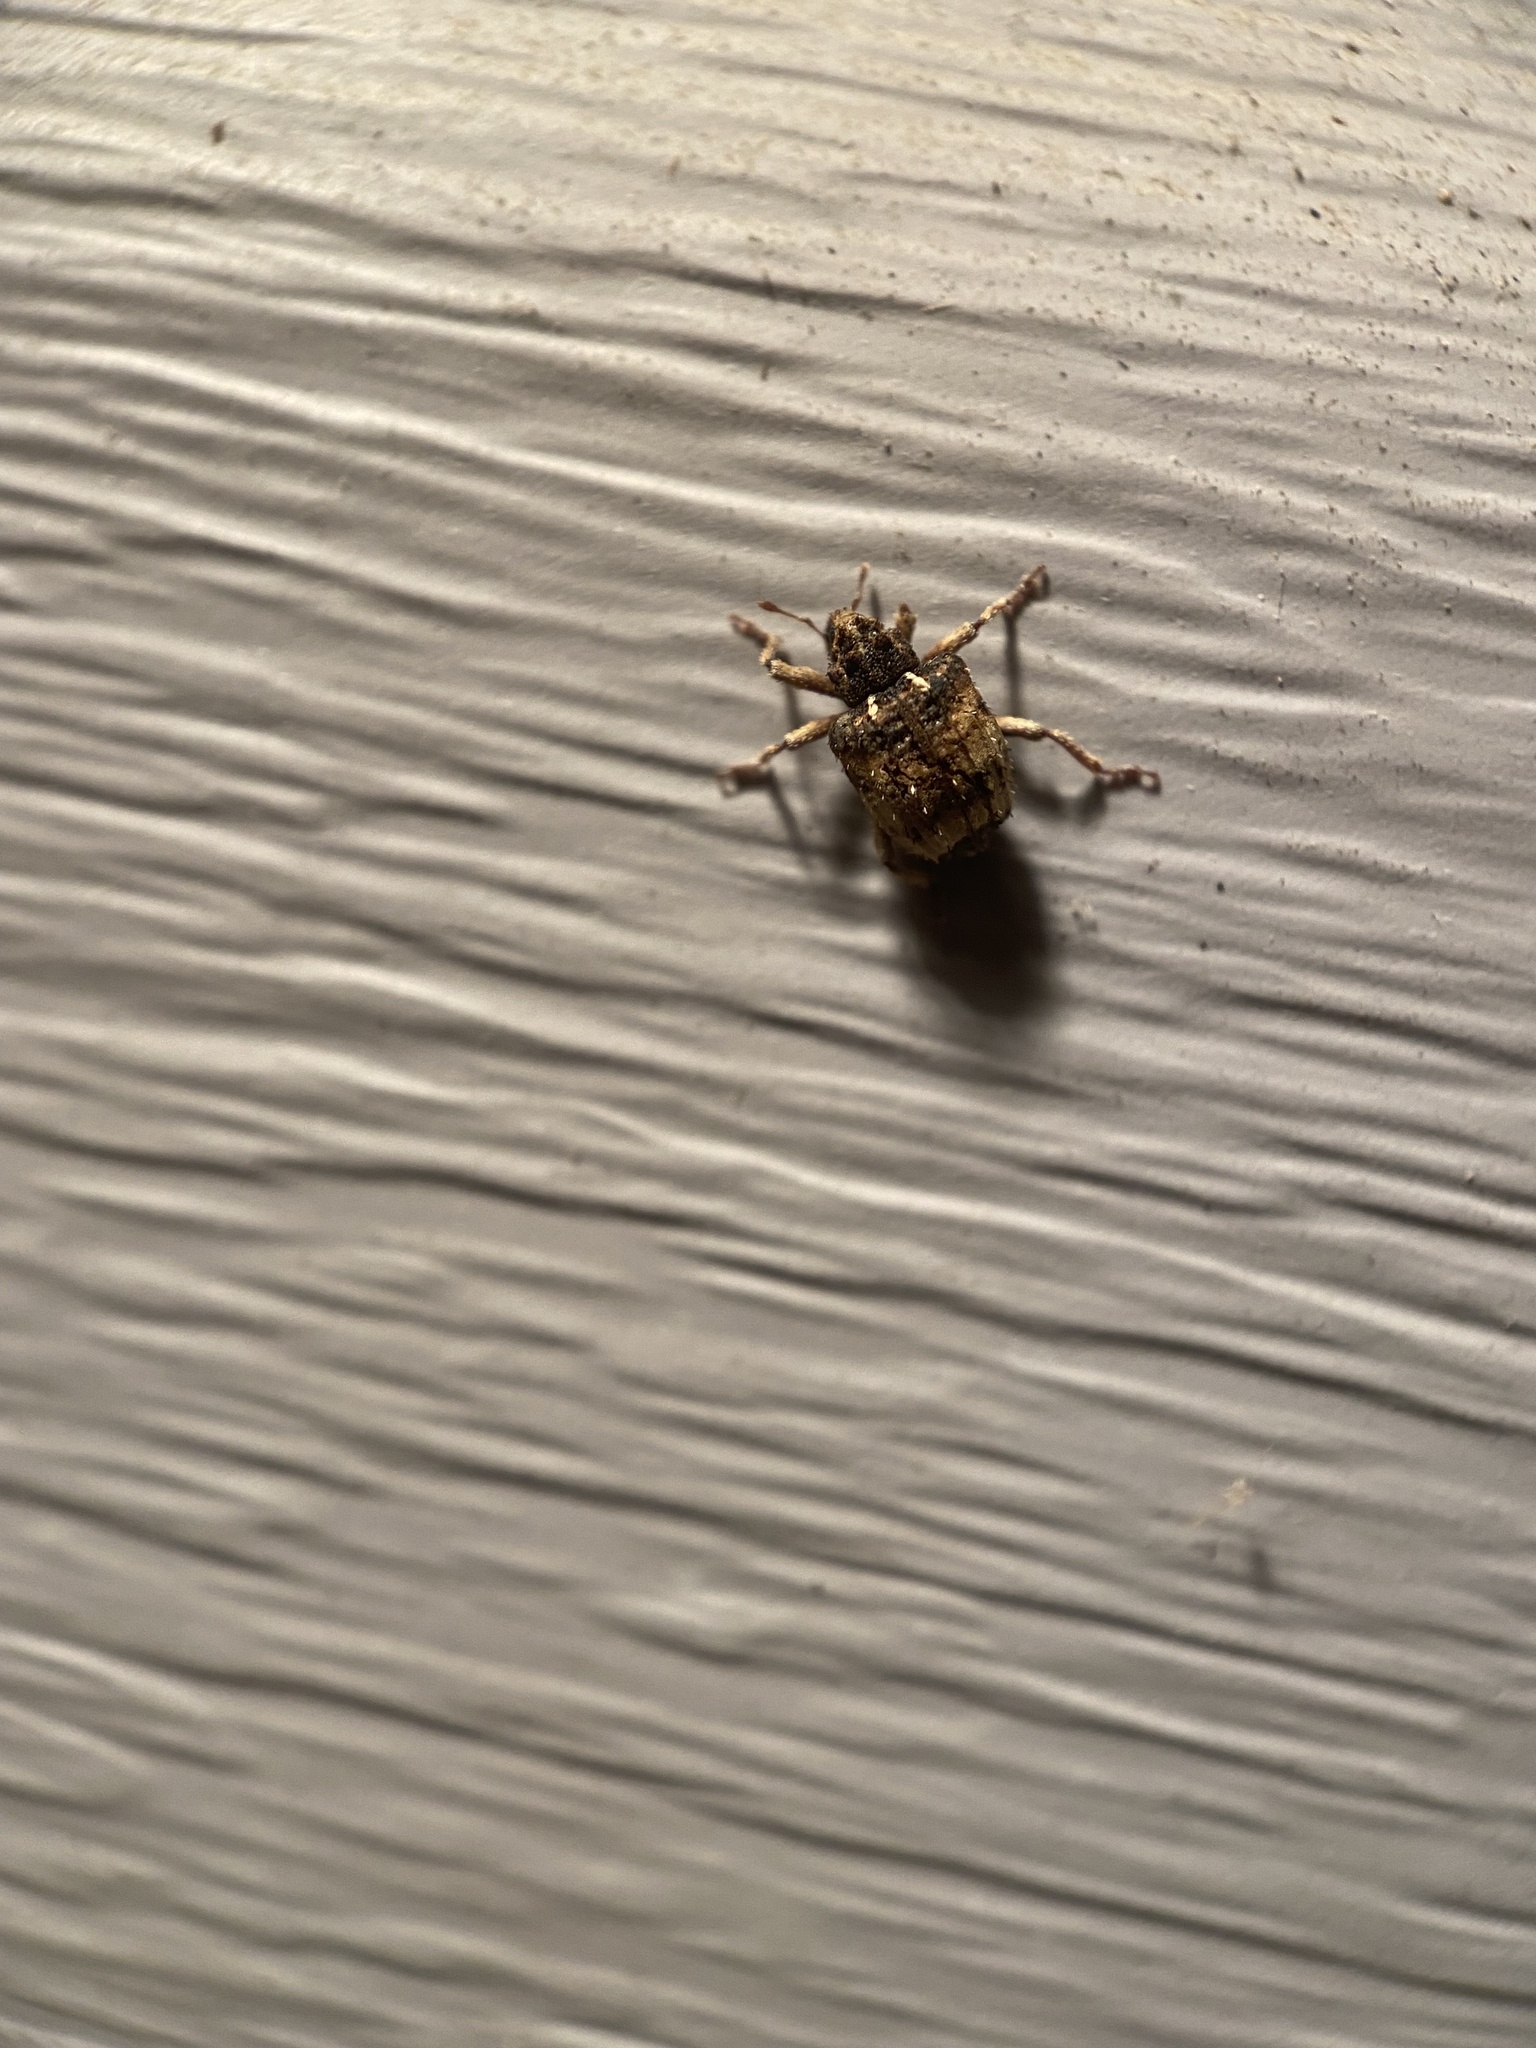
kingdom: Animalia
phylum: Arthropoda
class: Insecta
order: Coleoptera
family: Curculionidae
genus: Phyrdenus
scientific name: Phyrdenus divergens
